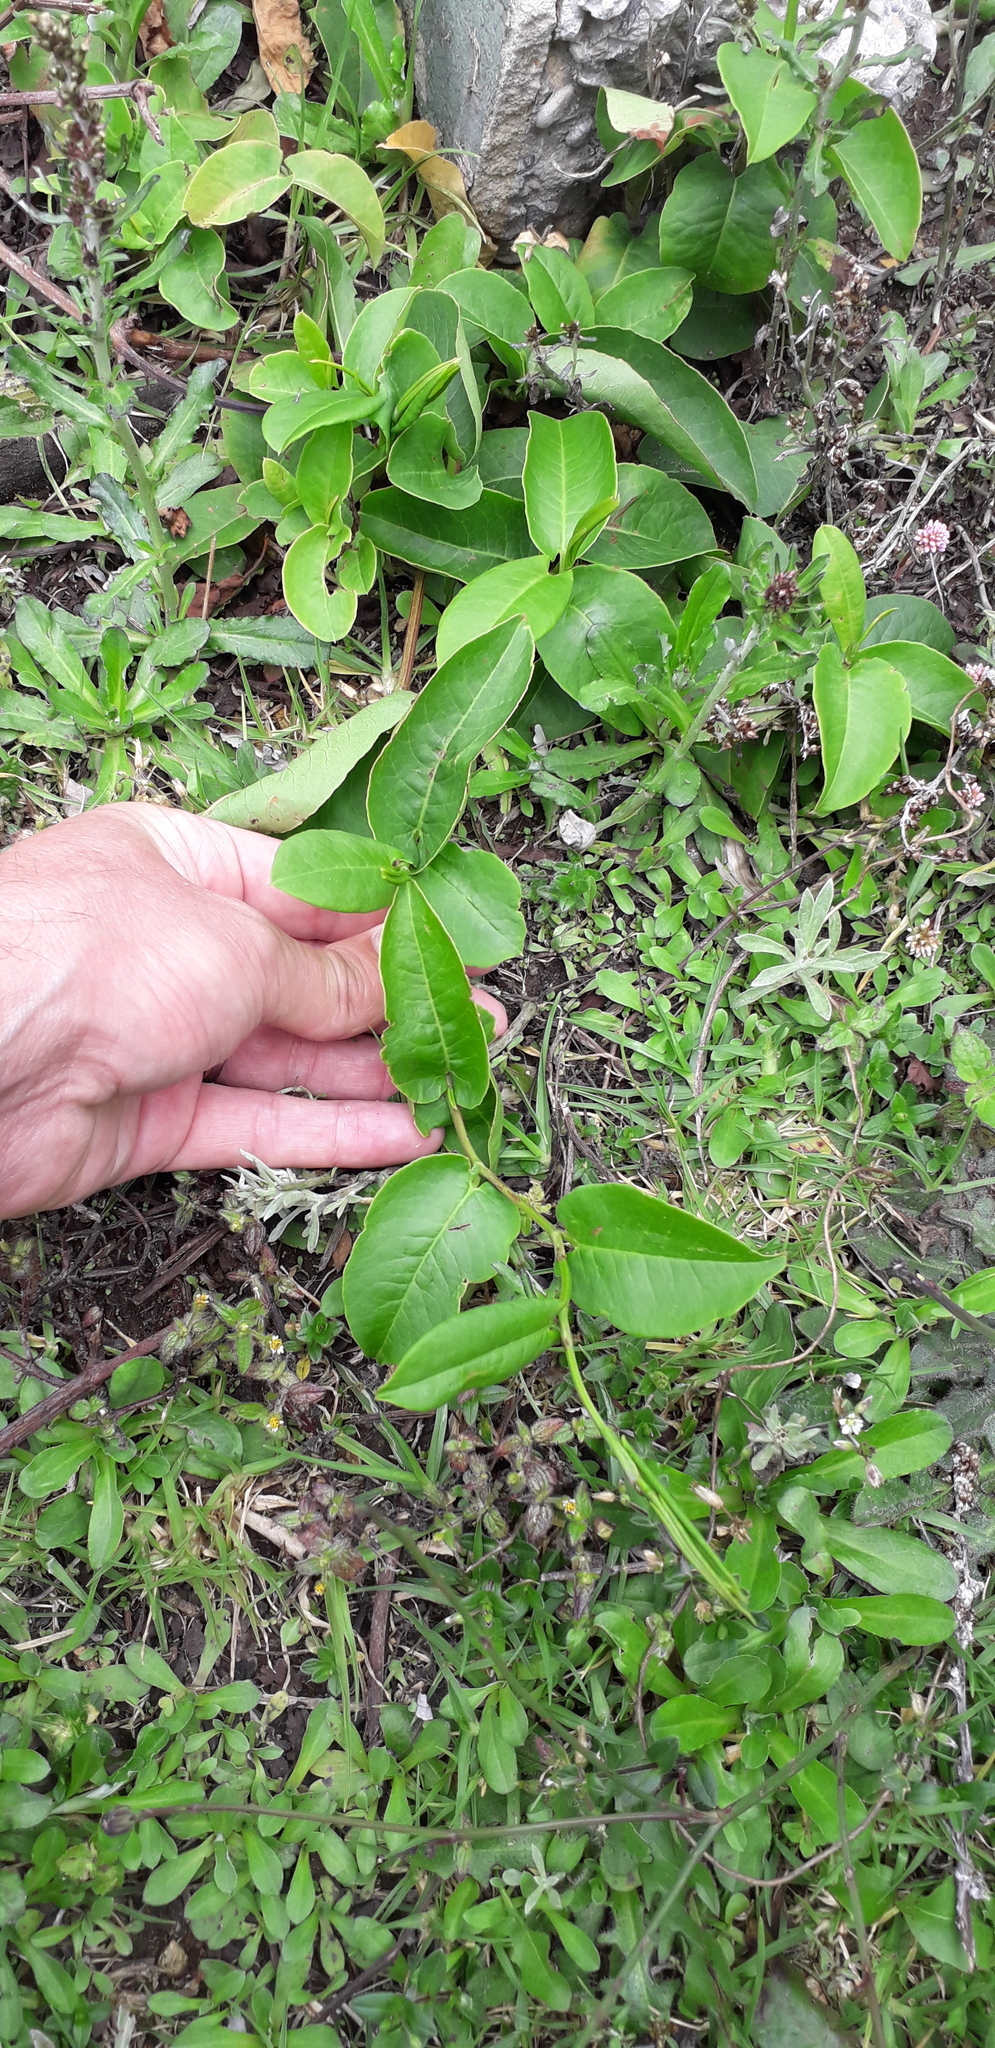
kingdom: Plantae
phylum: Tracheophyta
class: Magnoliopsida
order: Caryophyllales
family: Polygonaceae
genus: Muehlenbeckia
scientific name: Muehlenbeckia tamnifolia
